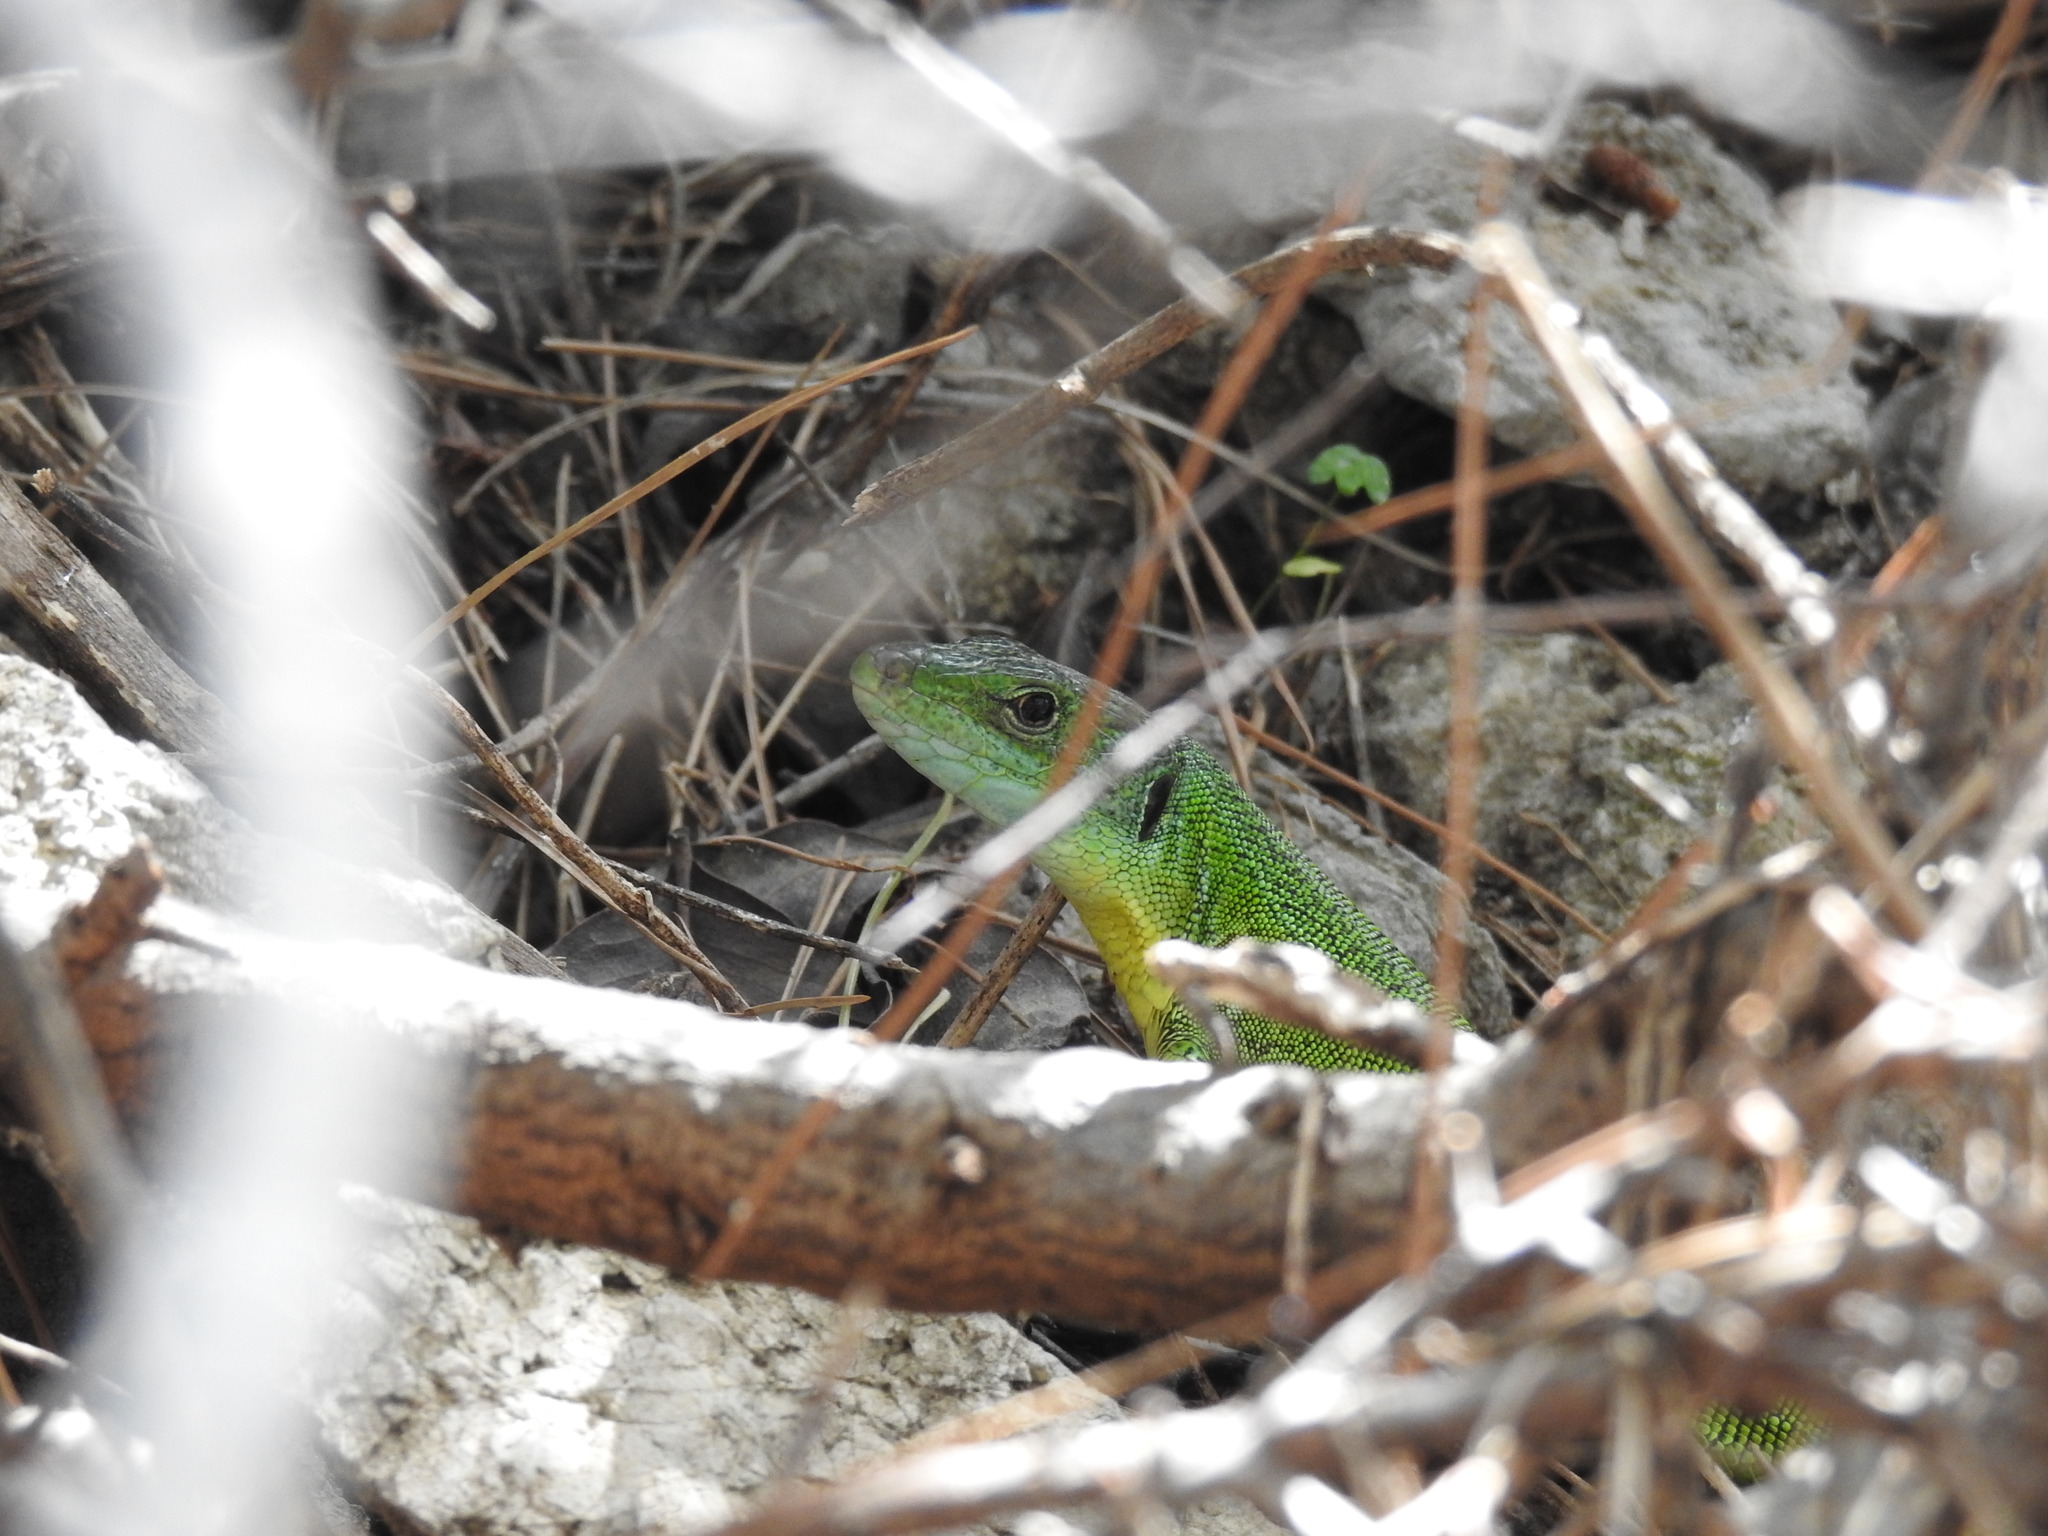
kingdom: Animalia
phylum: Chordata
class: Squamata
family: Lacertidae
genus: Lacerta
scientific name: Lacerta trilineata
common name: Balkan green lizard
